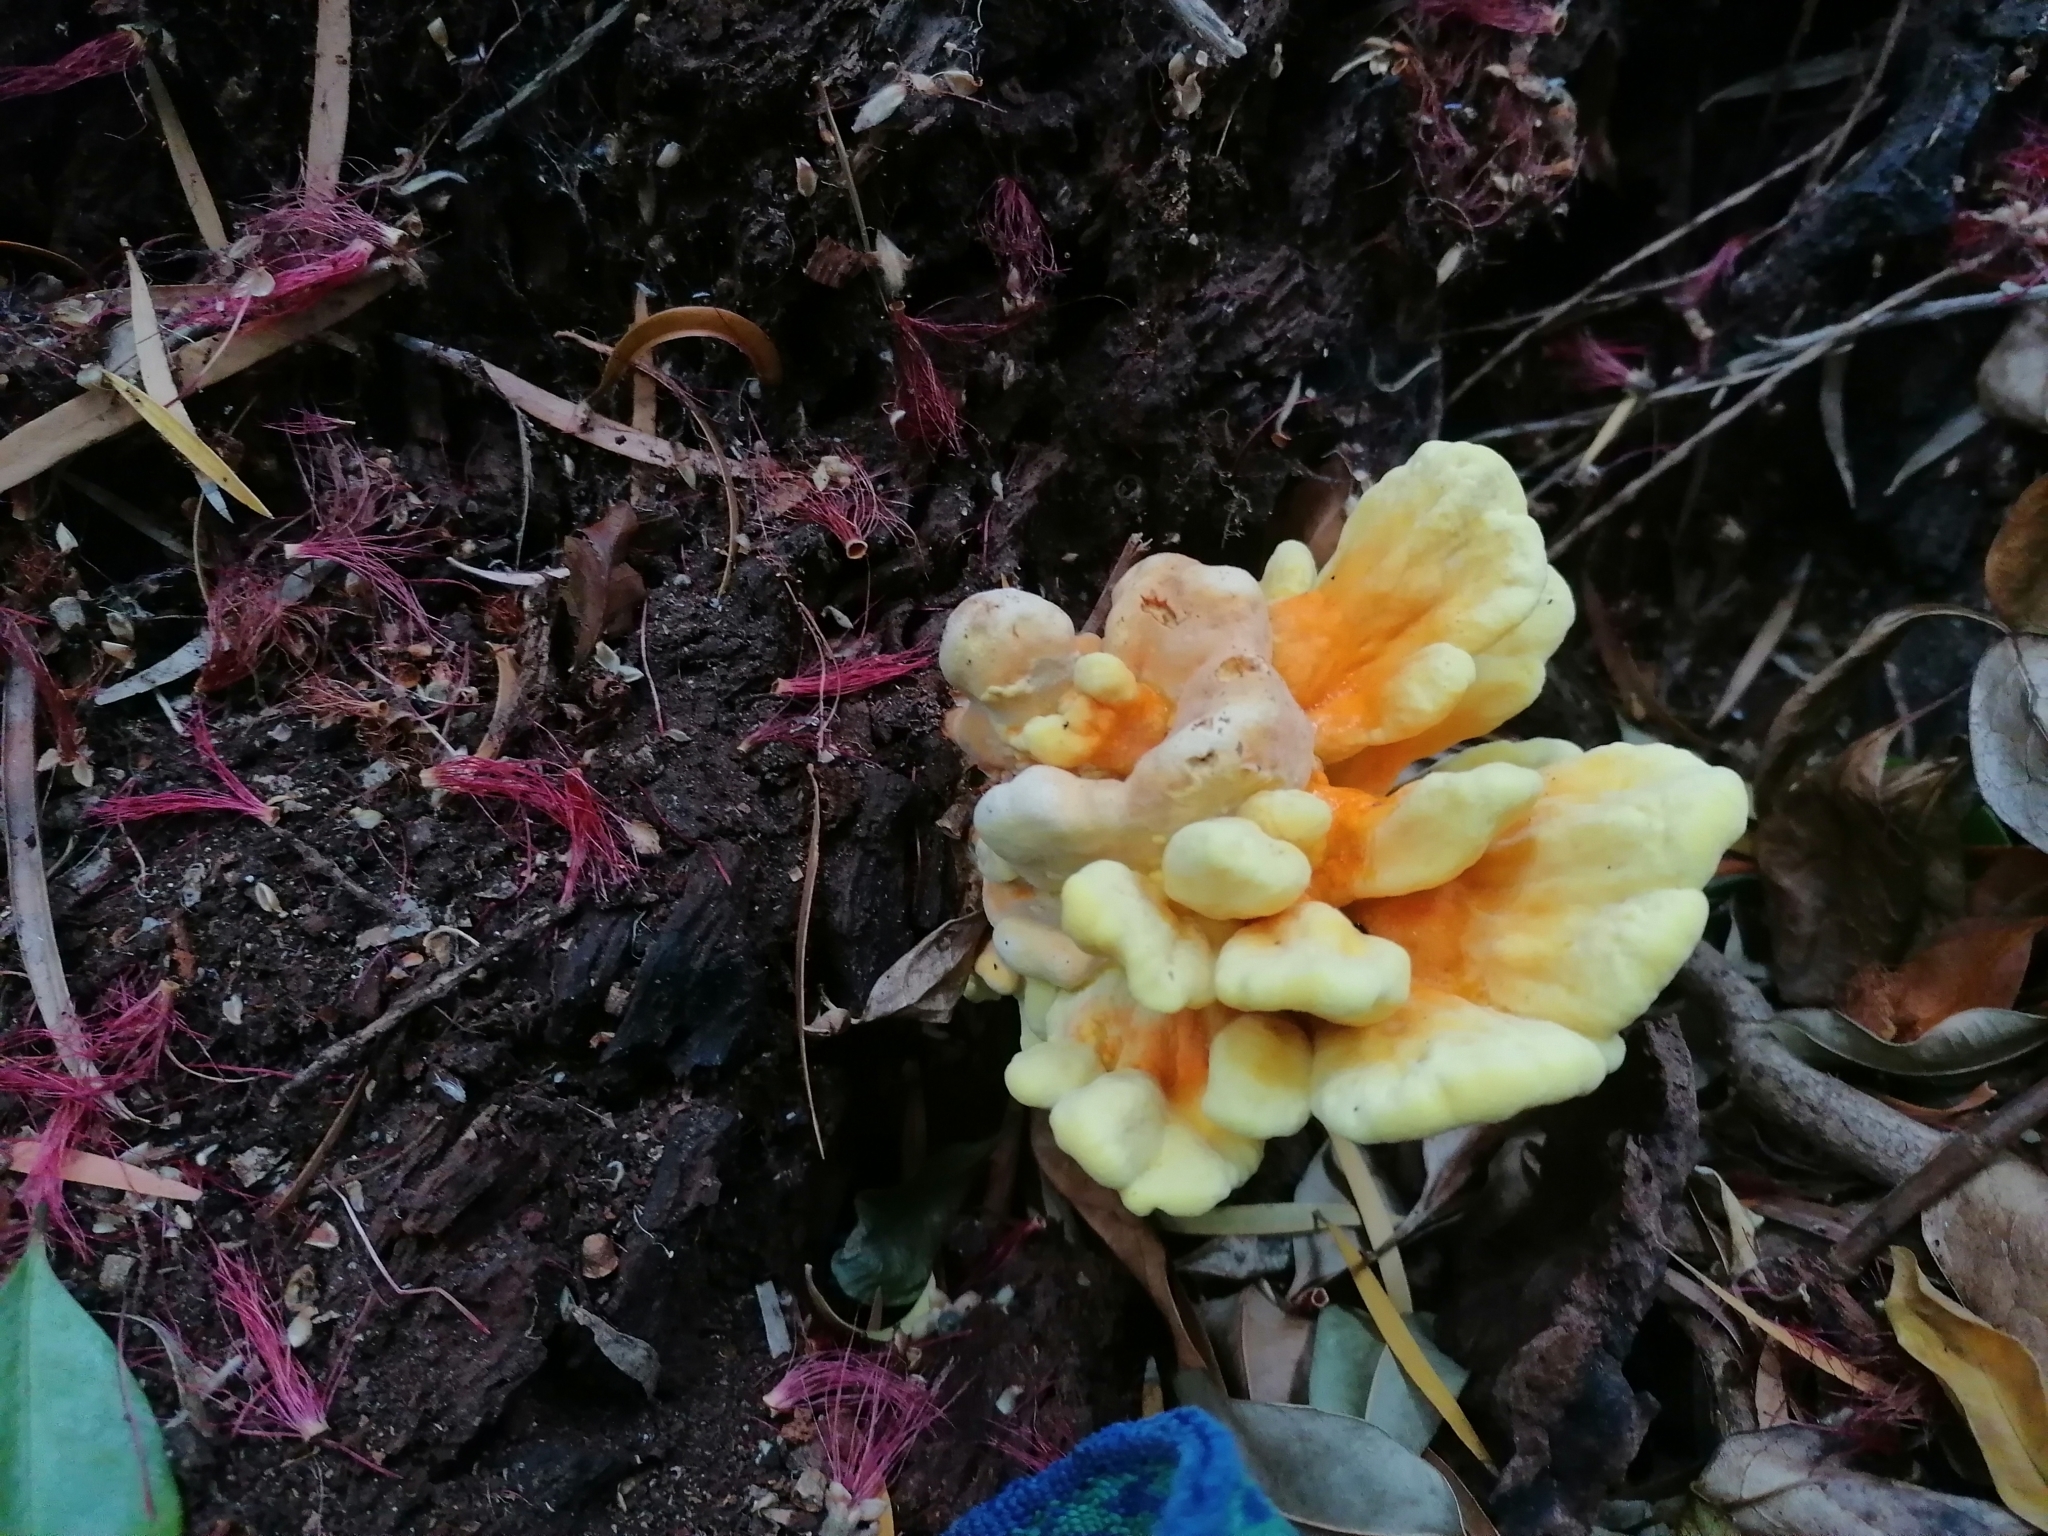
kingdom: Fungi
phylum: Basidiomycota
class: Agaricomycetes
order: Polyporales
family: Laetiporaceae
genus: Laetiporus
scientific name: Laetiporus sulphureus
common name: Chicken of the woods
